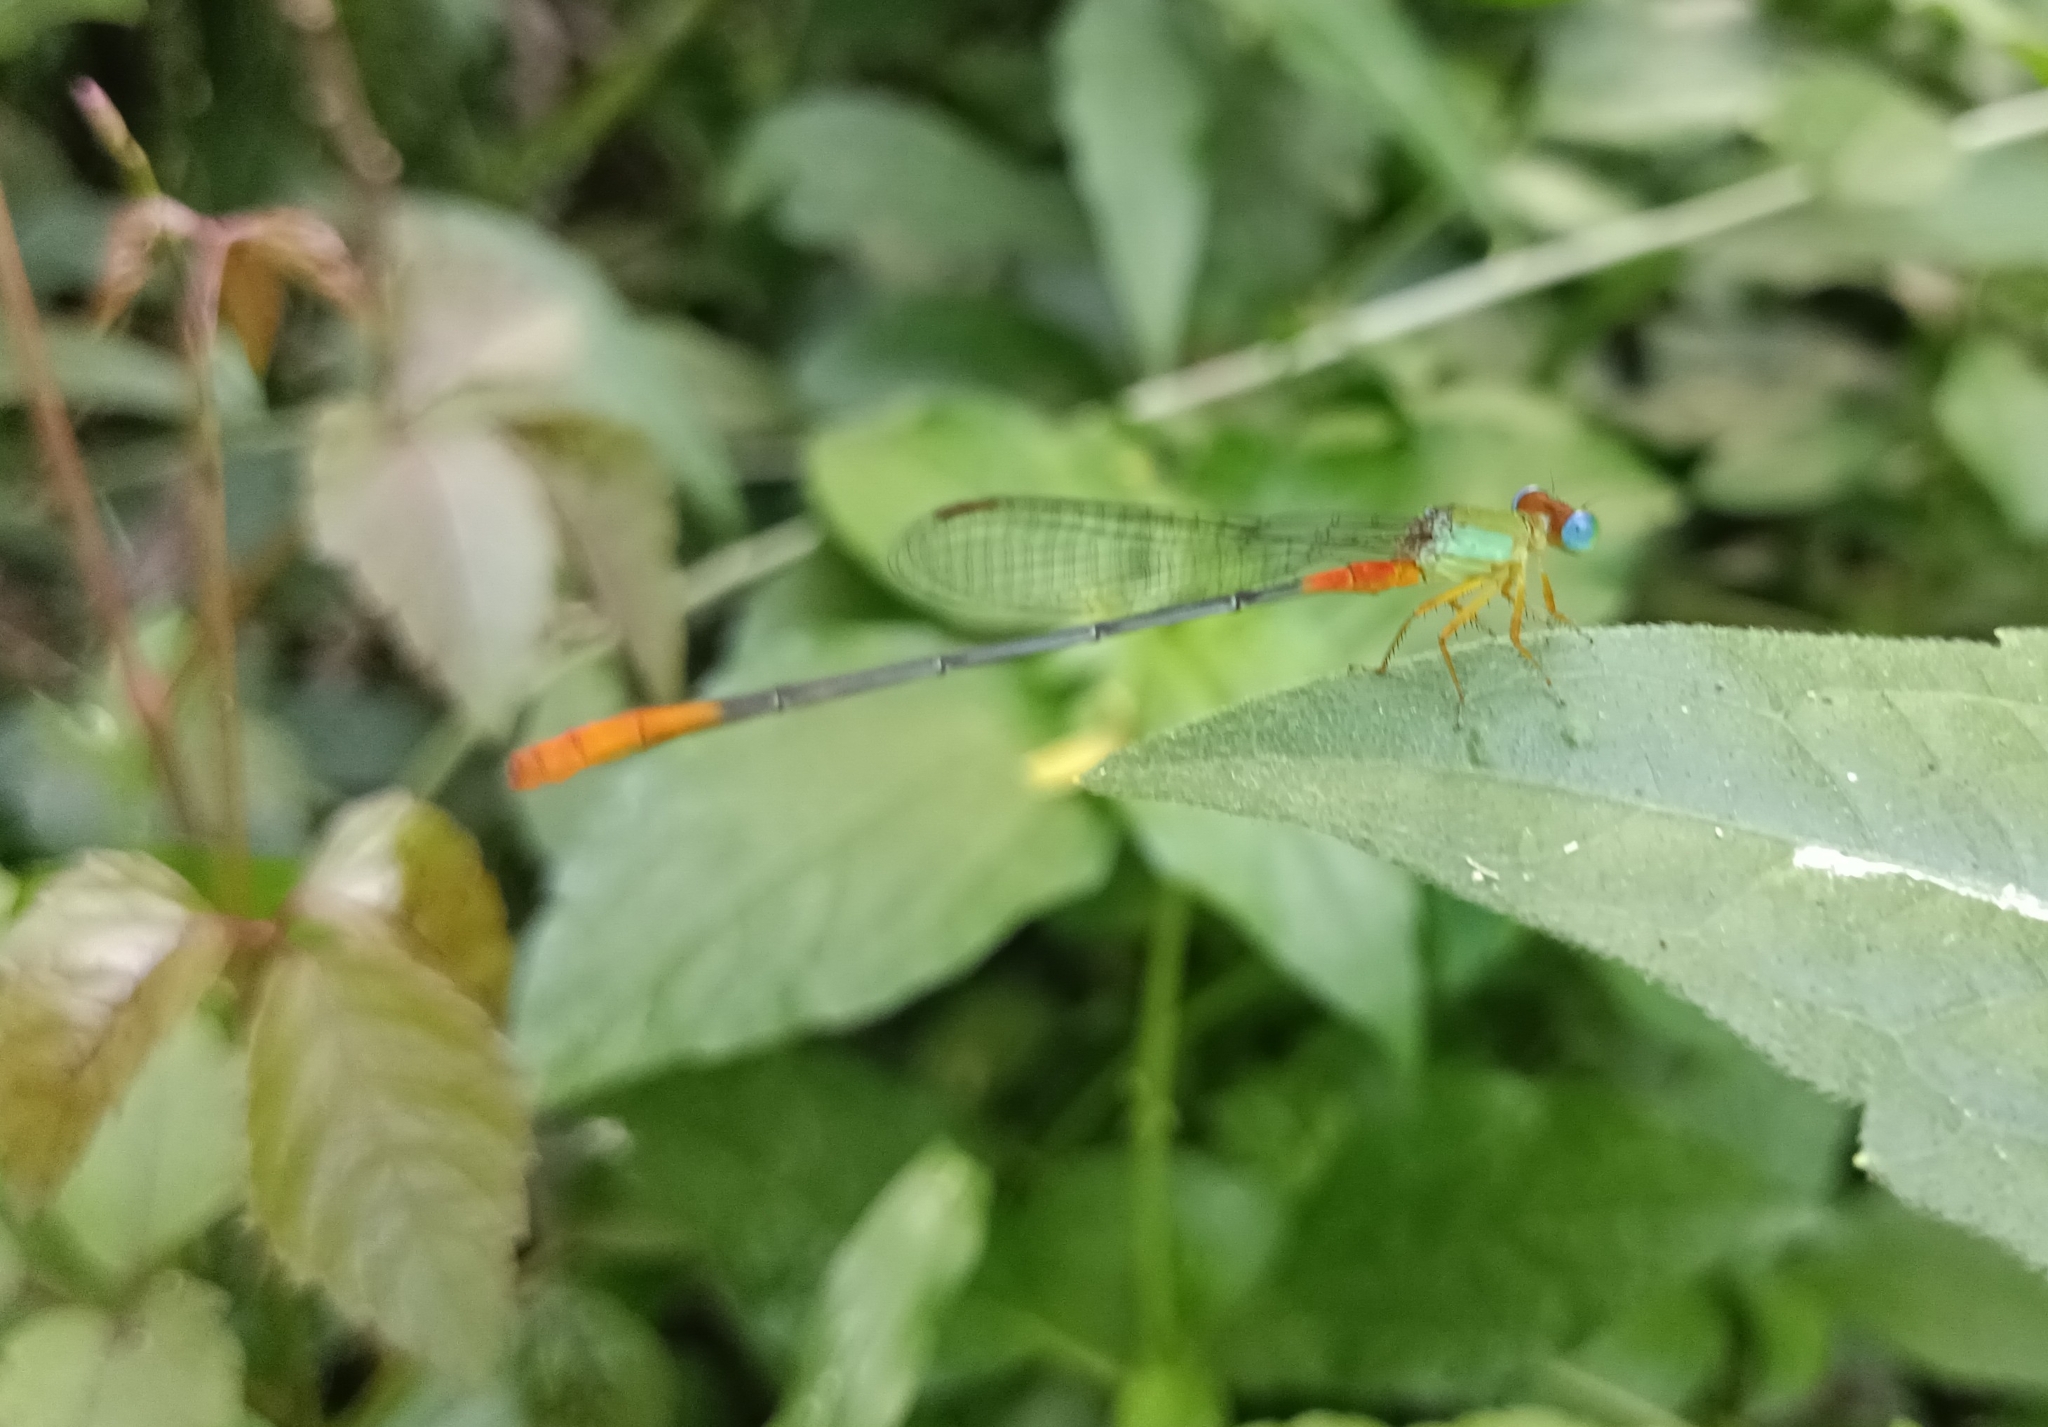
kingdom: Animalia
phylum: Arthropoda
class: Insecta
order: Odonata
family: Coenagrionidae
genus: Ceriagrion
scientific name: Ceriagrion cerinorubellum
